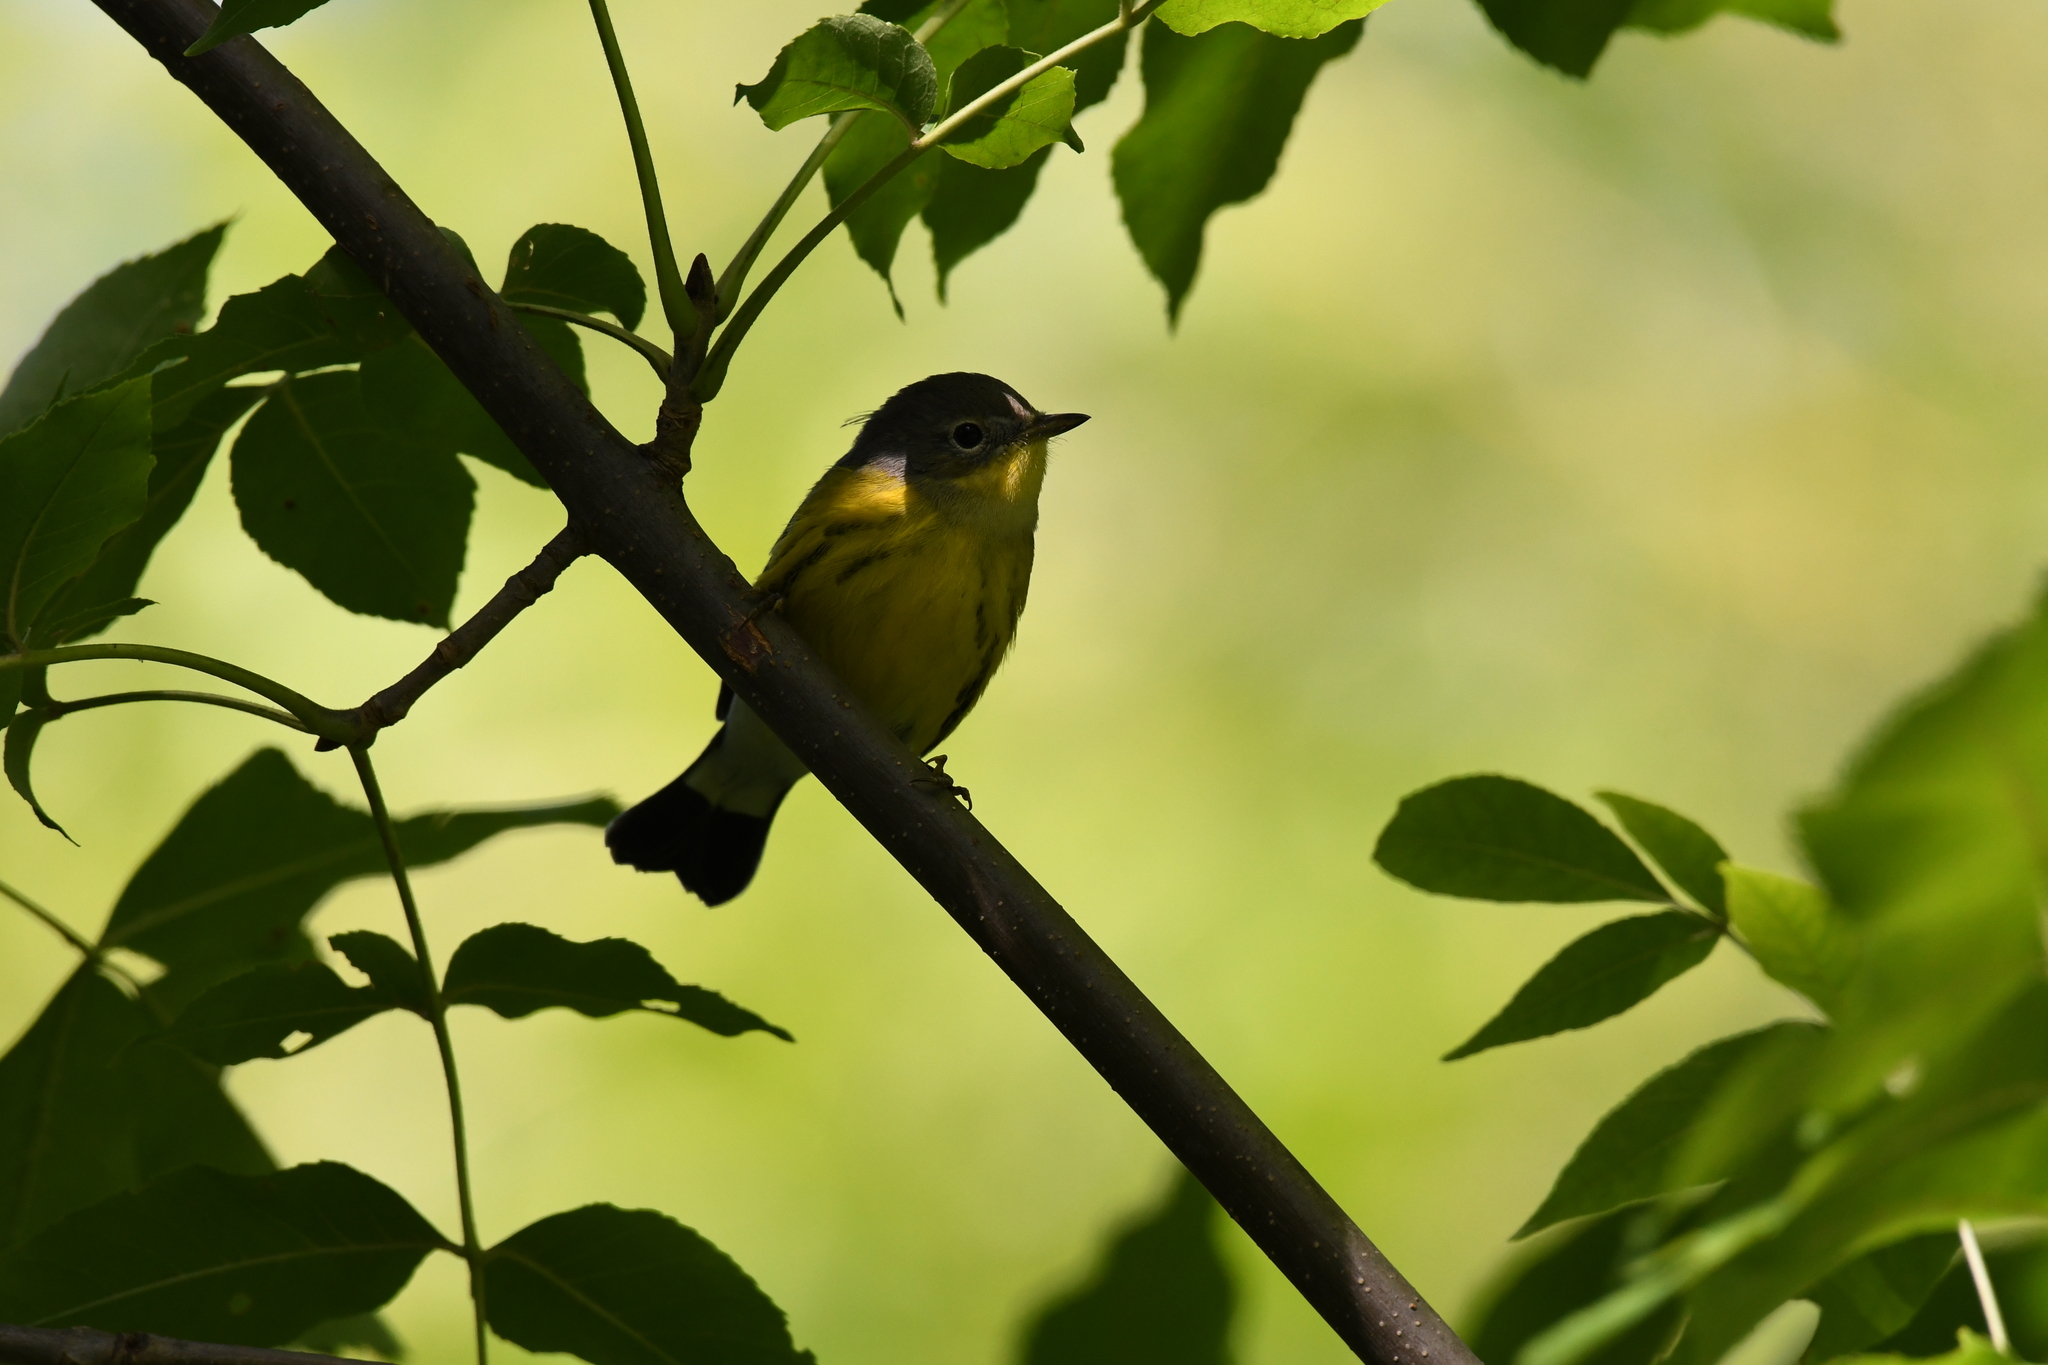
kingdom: Animalia
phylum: Chordata
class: Aves
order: Passeriformes
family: Parulidae
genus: Setophaga
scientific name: Setophaga magnolia
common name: Magnolia warbler
